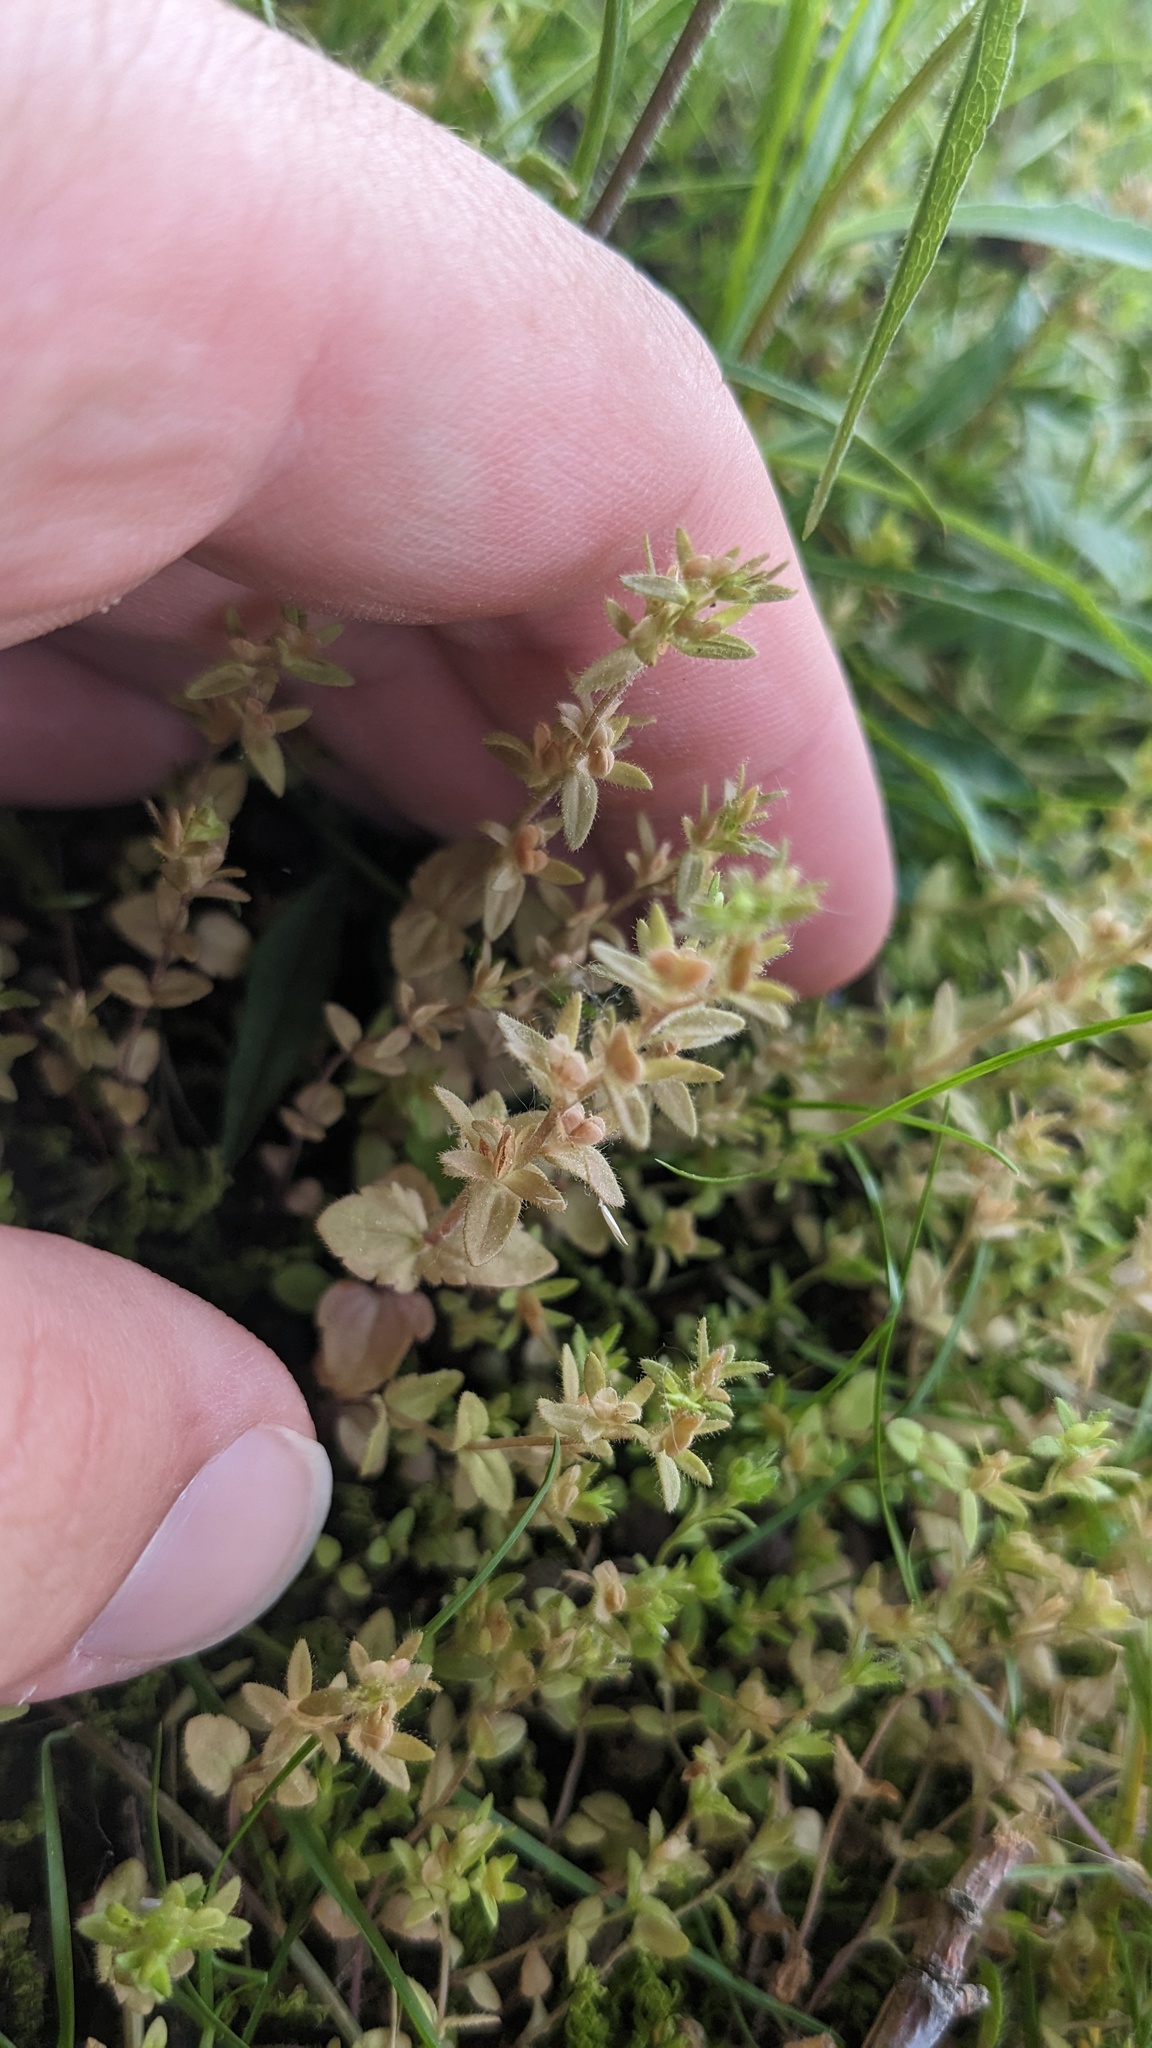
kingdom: Plantae
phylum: Tracheophyta
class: Magnoliopsida
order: Lamiales
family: Plantaginaceae
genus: Veronica
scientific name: Veronica arvensis
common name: Corn speedwell
